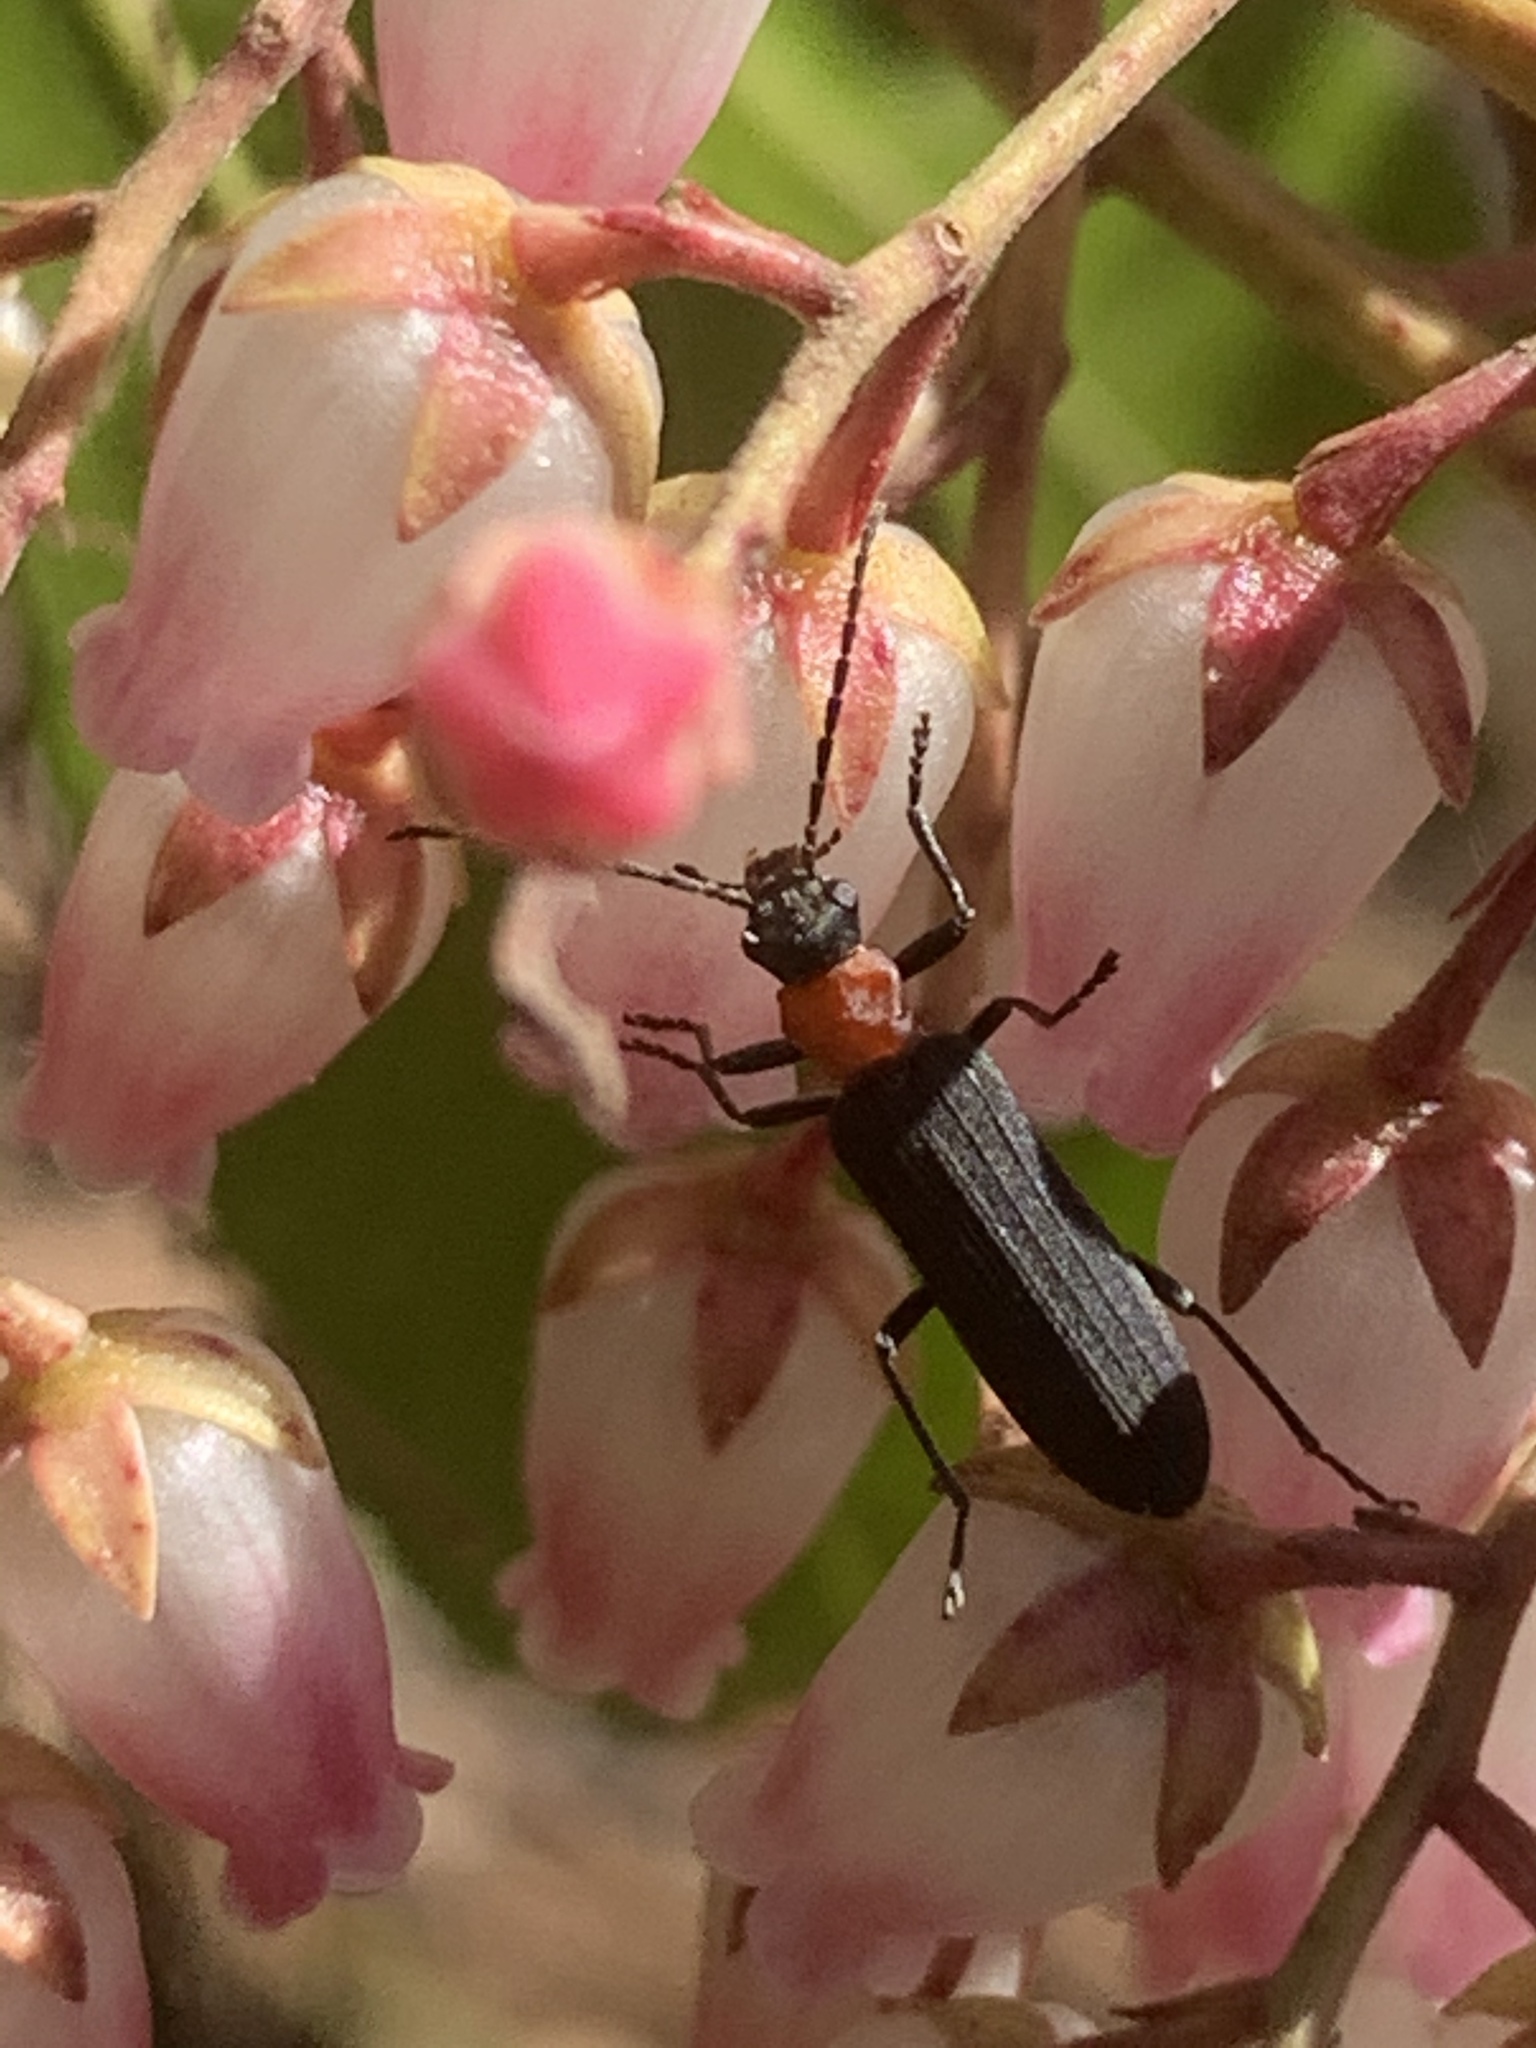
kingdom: Animalia
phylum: Arthropoda
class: Insecta
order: Coleoptera
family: Oedemeridae
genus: Ischnomera
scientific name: Ischnomera
